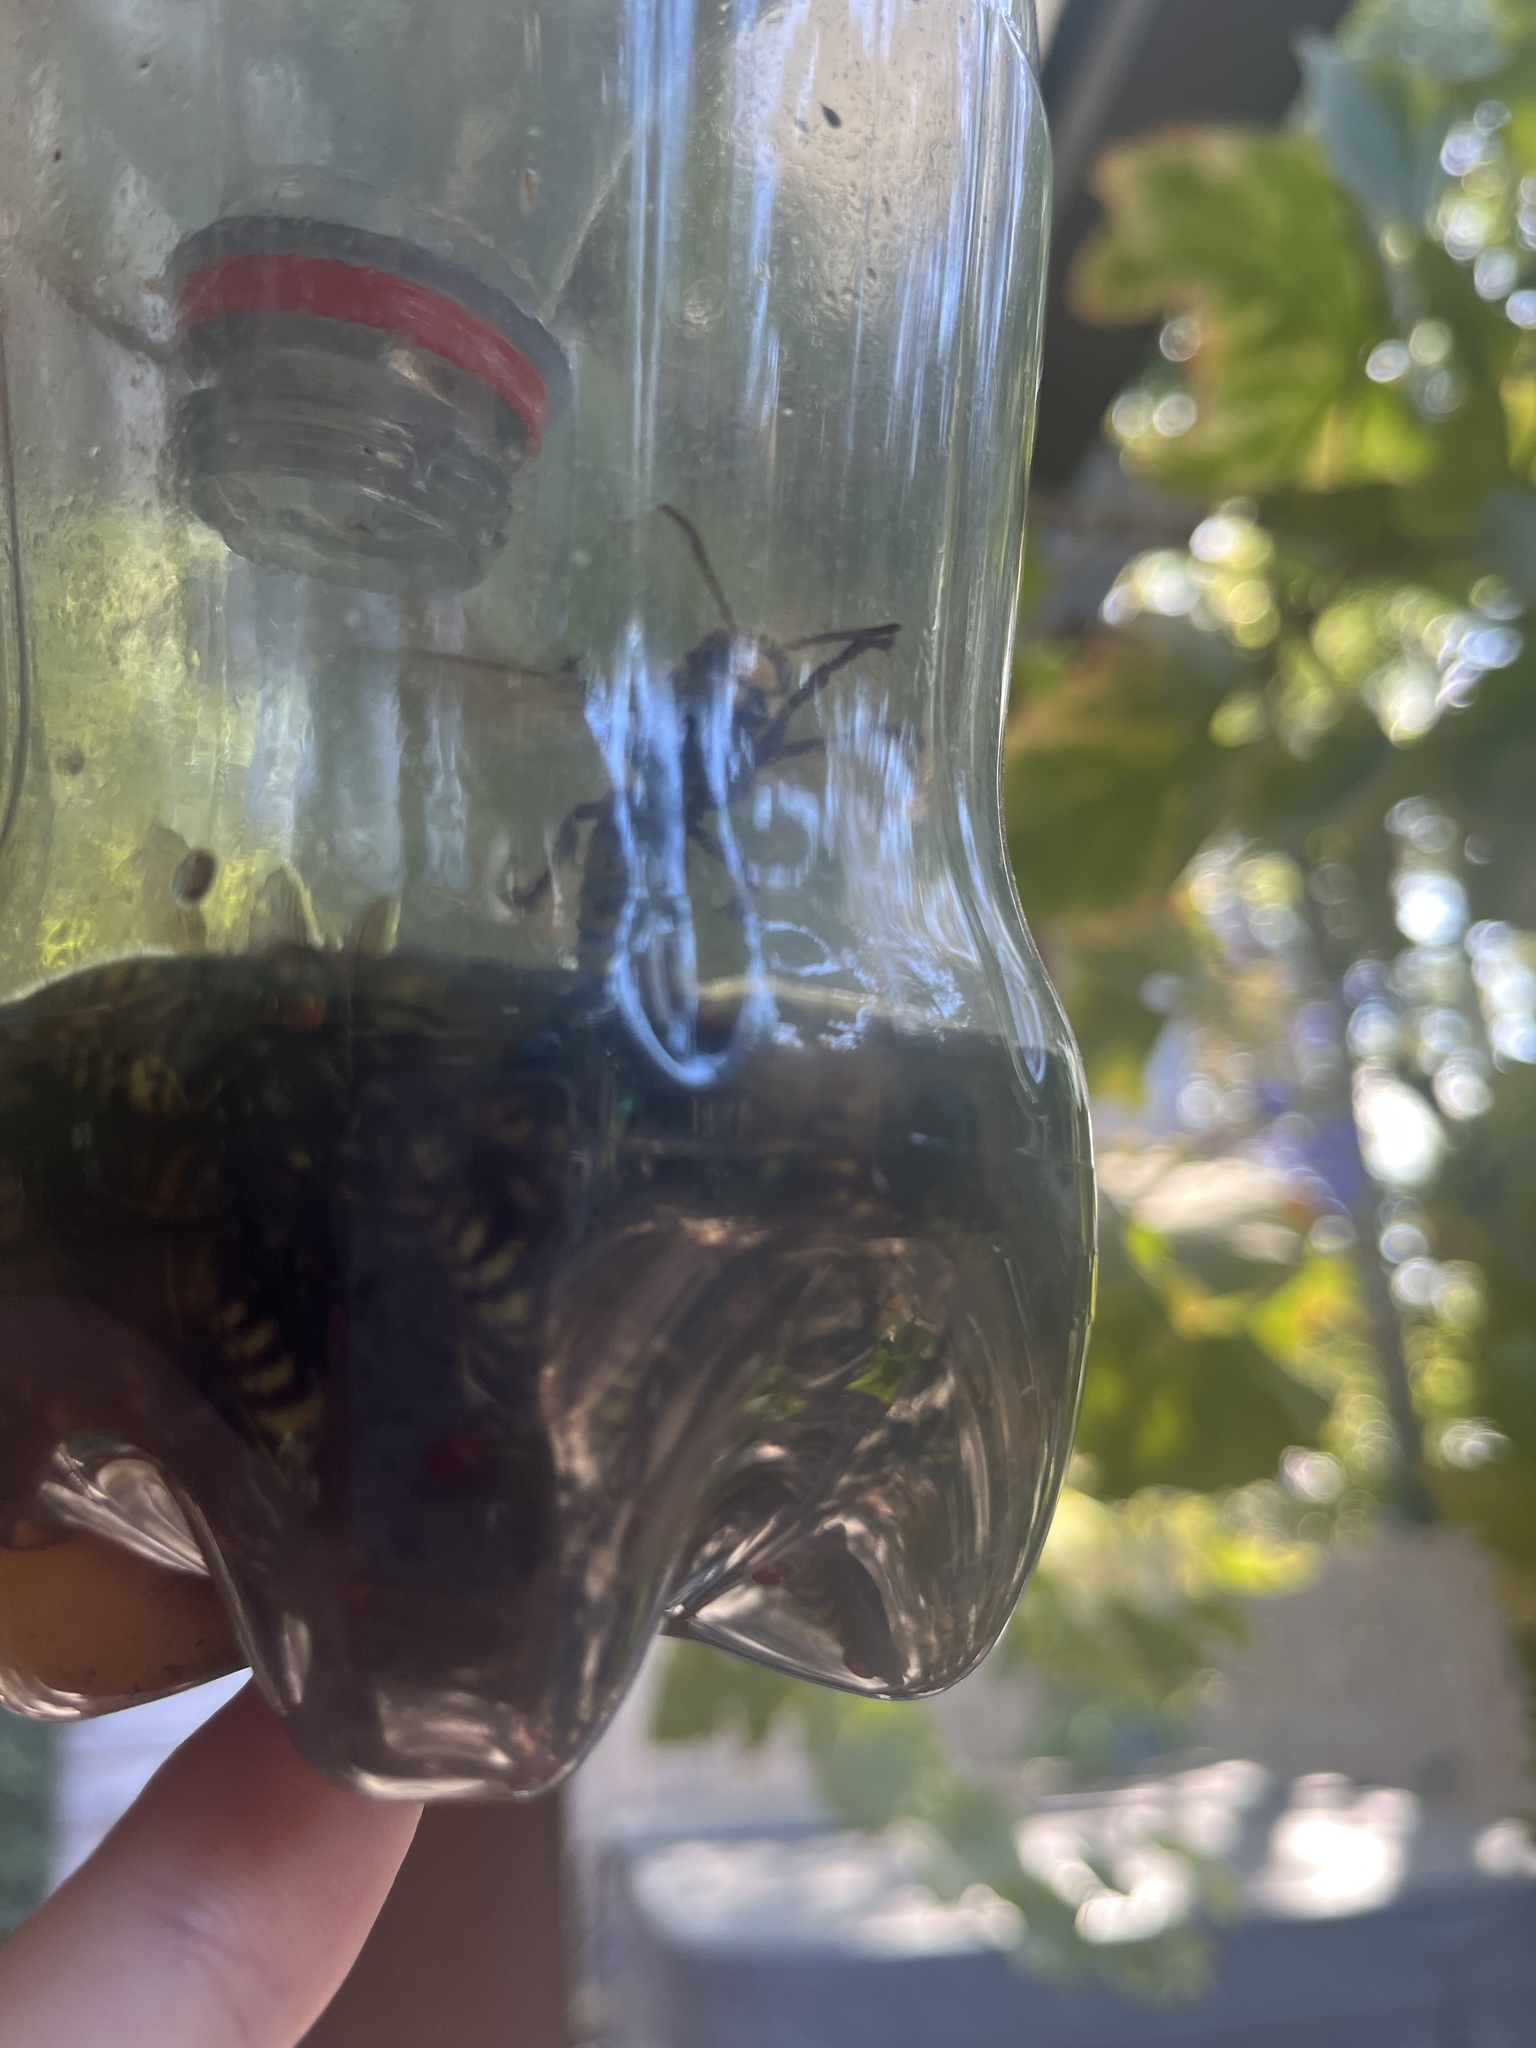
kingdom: Animalia
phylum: Arthropoda
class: Insecta
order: Hymenoptera
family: Vespidae
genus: Vespa
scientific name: Vespa crabro
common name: Hornet
